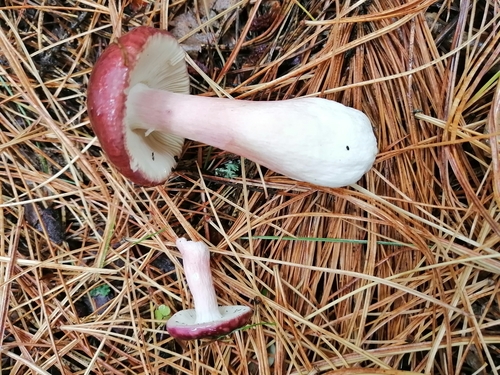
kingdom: Fungi
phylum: Basidiomycota
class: Agaricomycetes
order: Russulales
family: Russulaceae
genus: Russula
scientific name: Russula paludosa
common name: Hintapink
